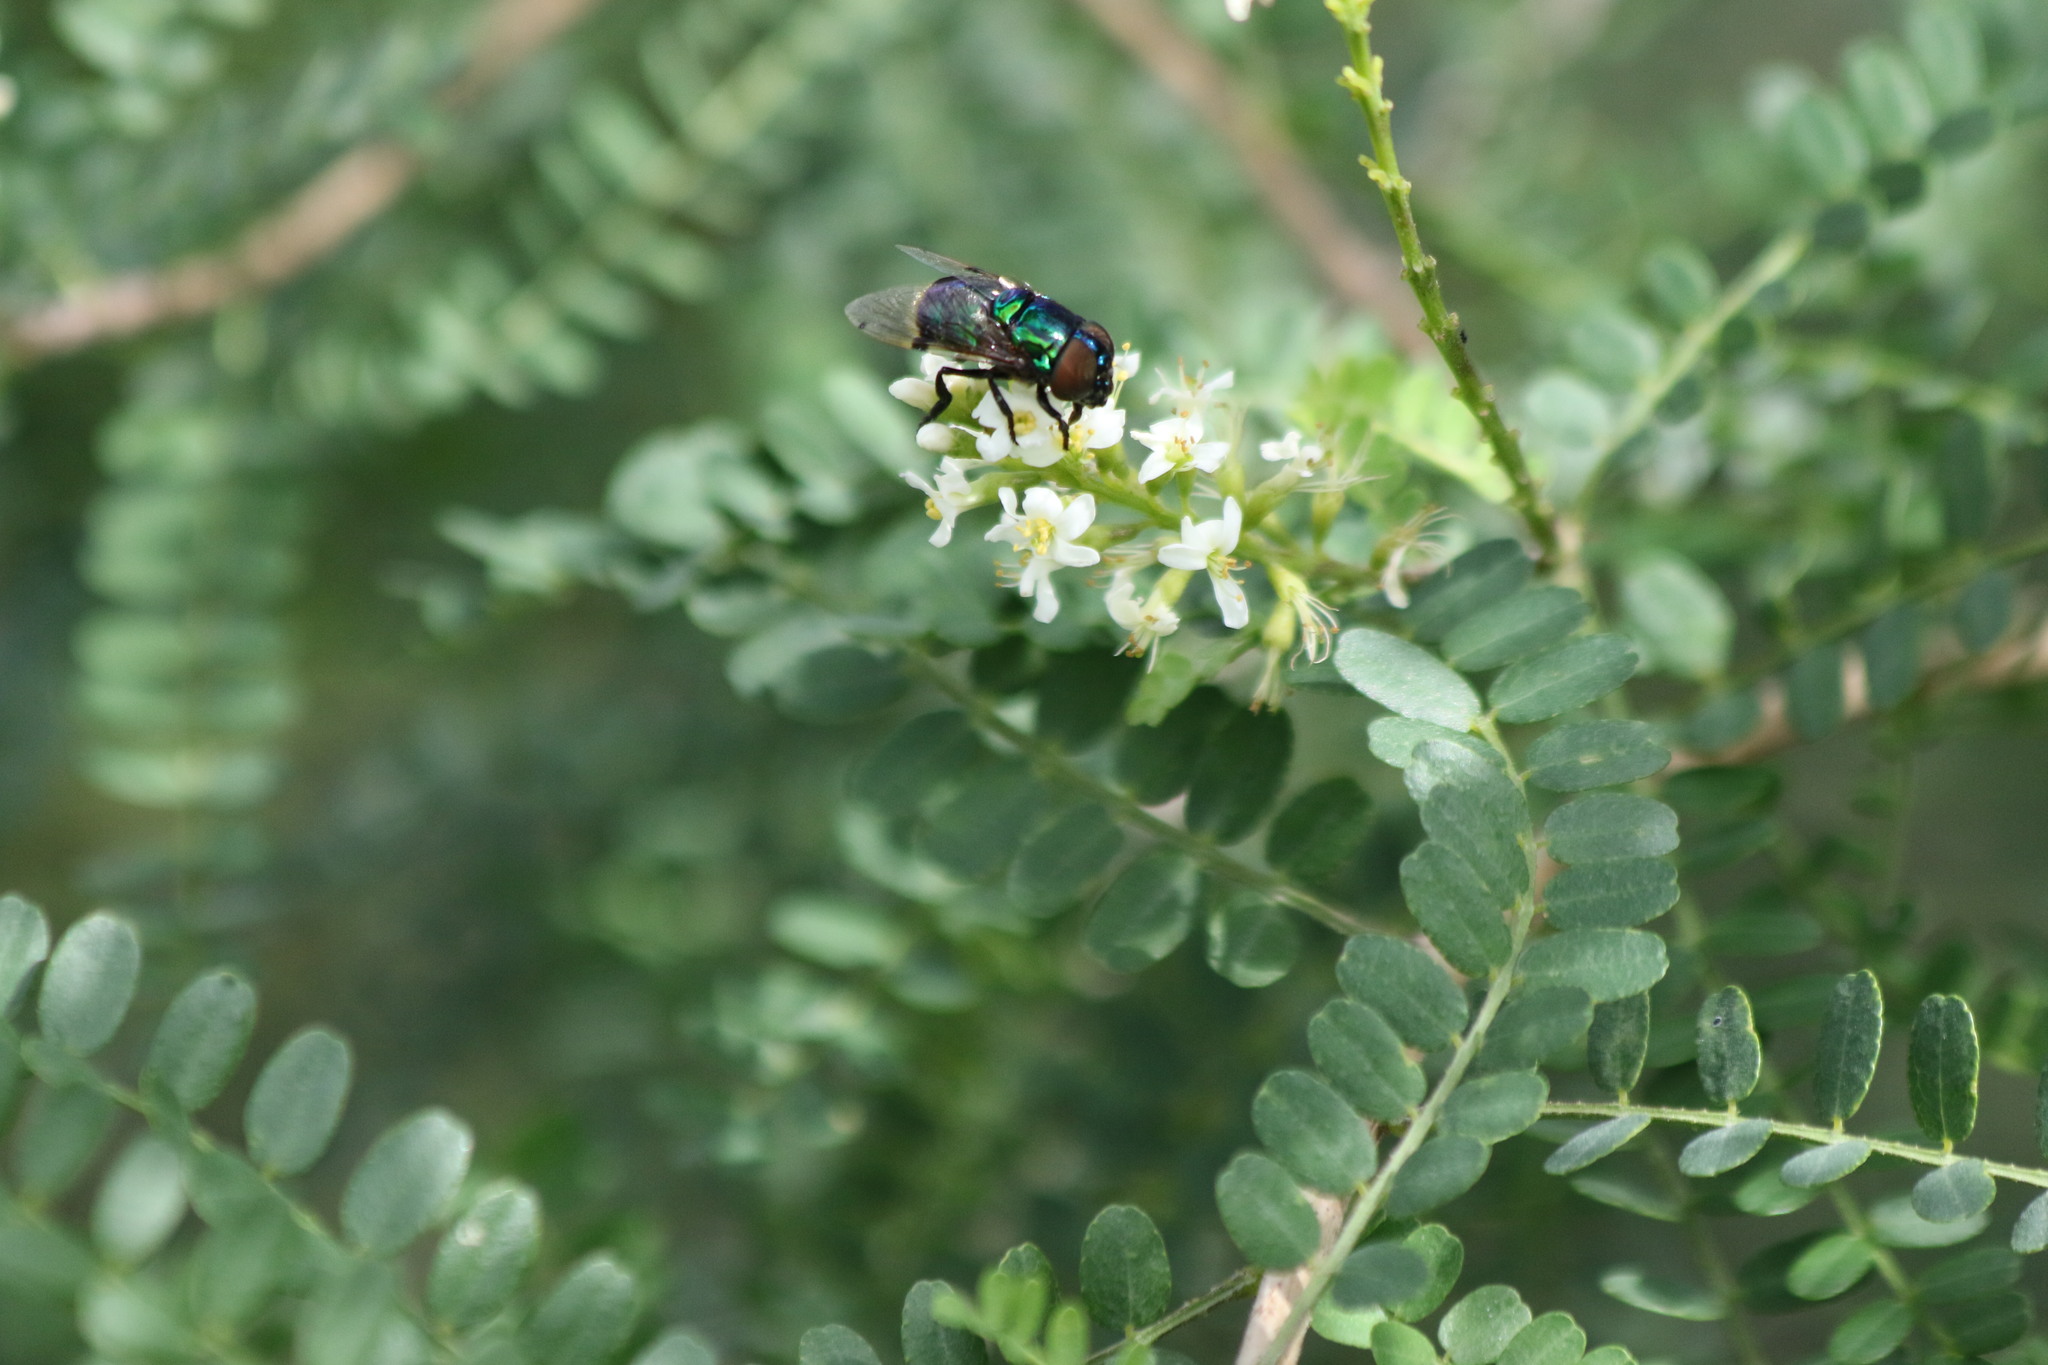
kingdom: Animalia
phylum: Arthropoda
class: Insecta
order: Diptera
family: Syrphidae
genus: Ornidia
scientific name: Ornidia obesa
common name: Syrphid fly
